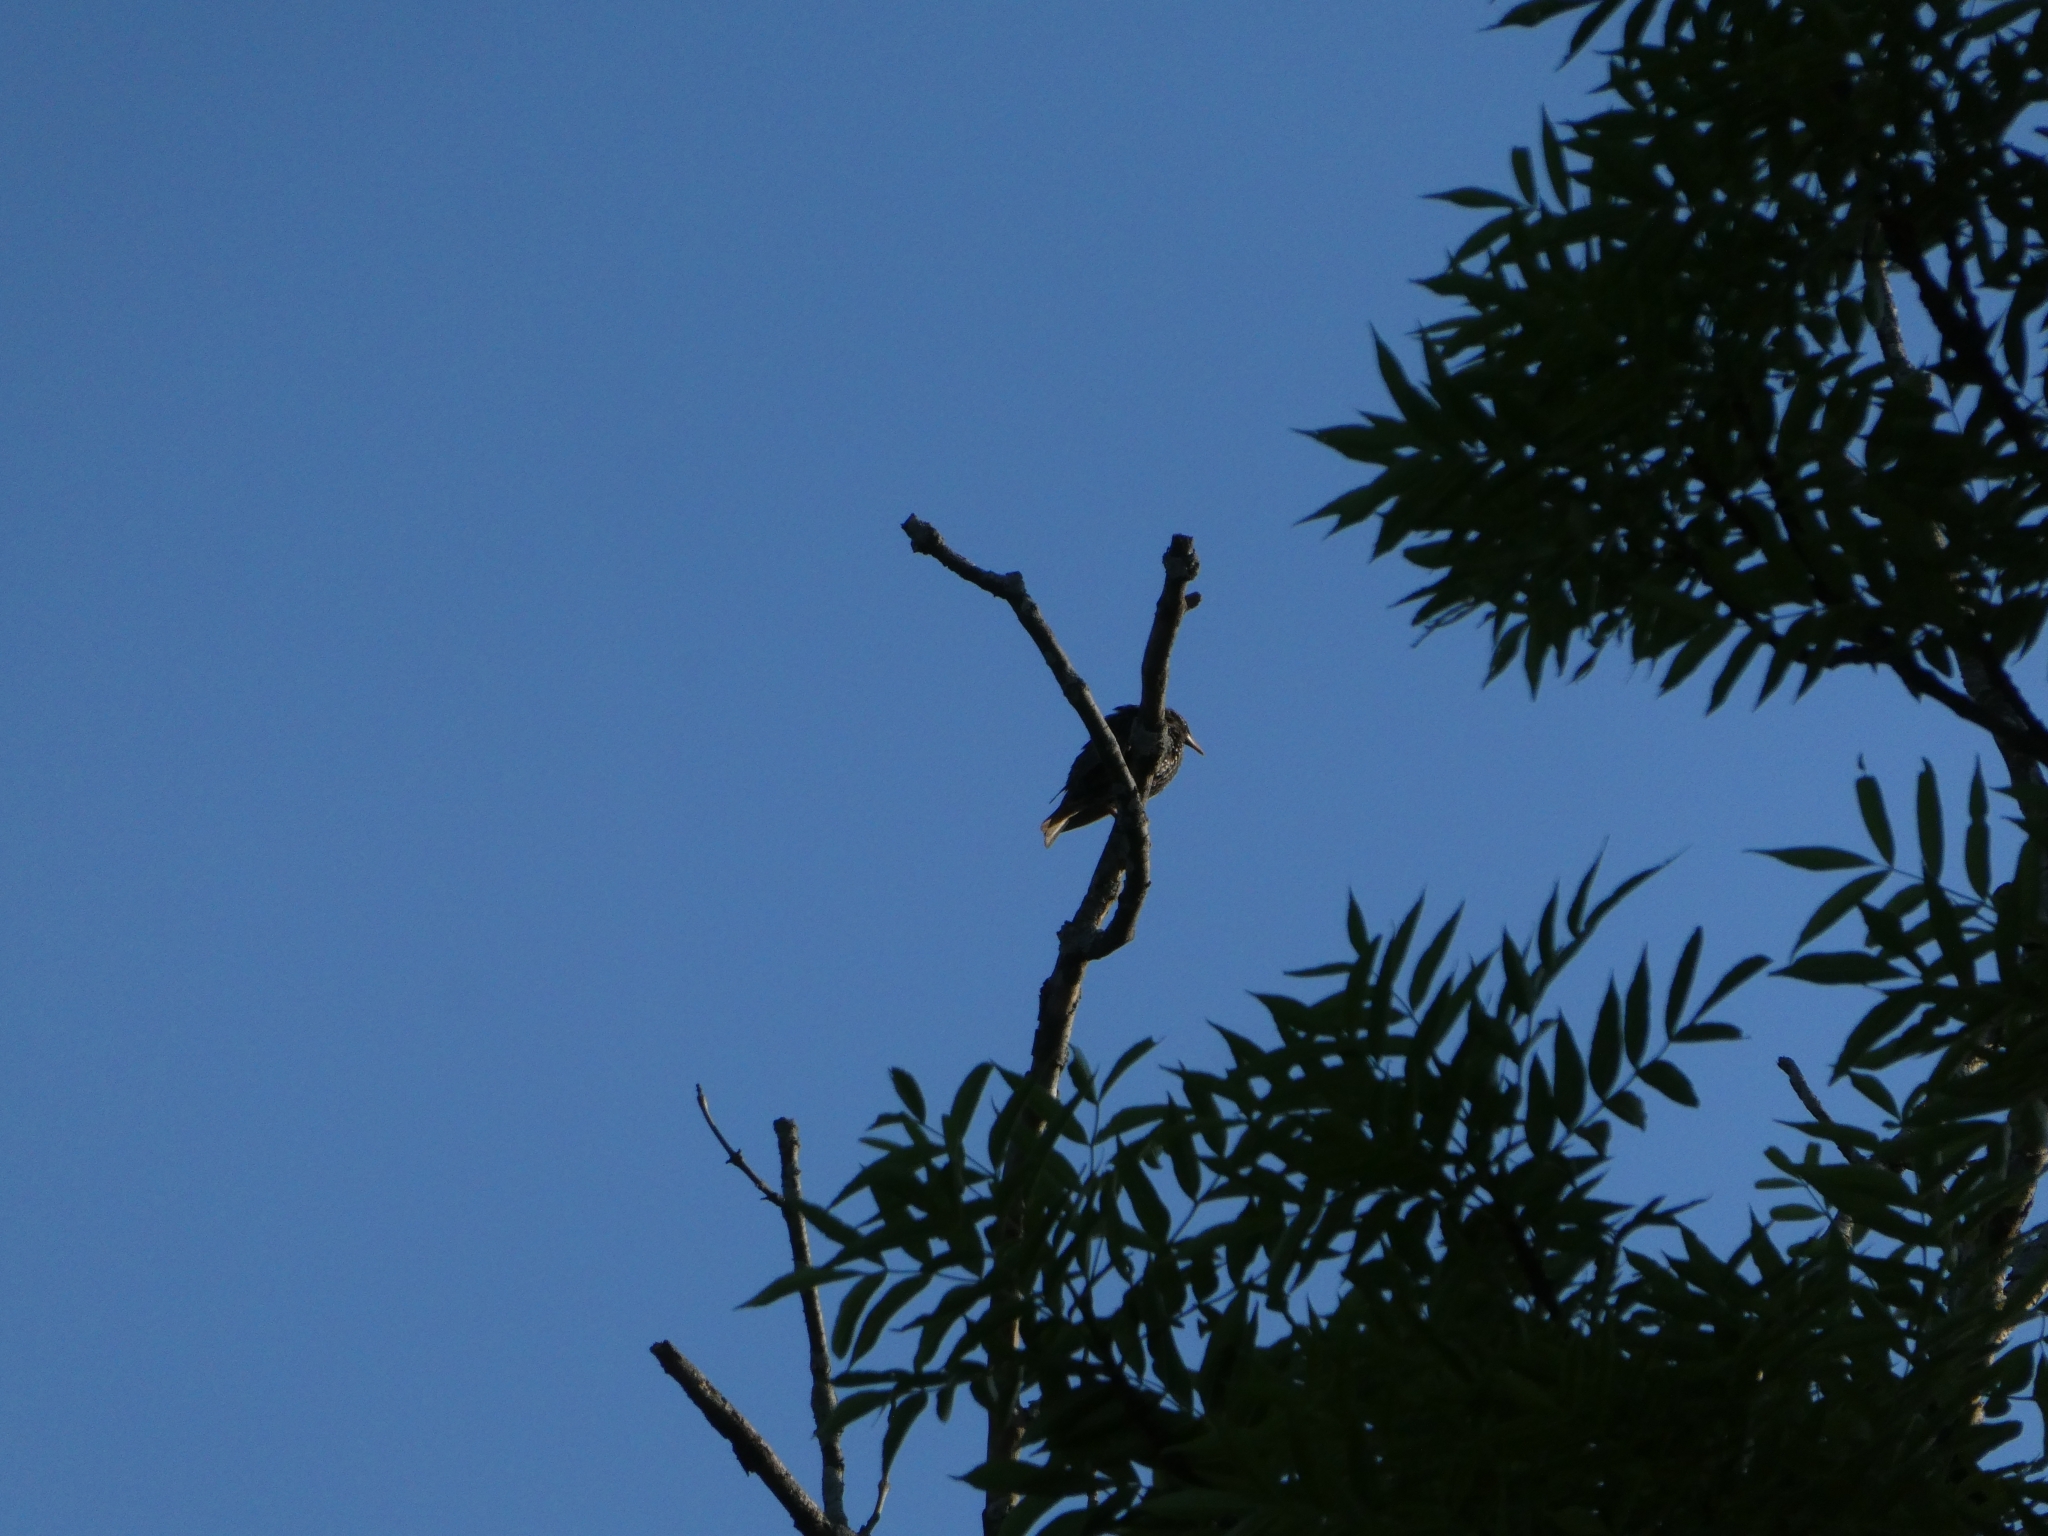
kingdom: Animalia
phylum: Chordata
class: Aves
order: Passeriformes
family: Sturnidae
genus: Sturnus
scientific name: Sturnus vulgaris
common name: Common starling
